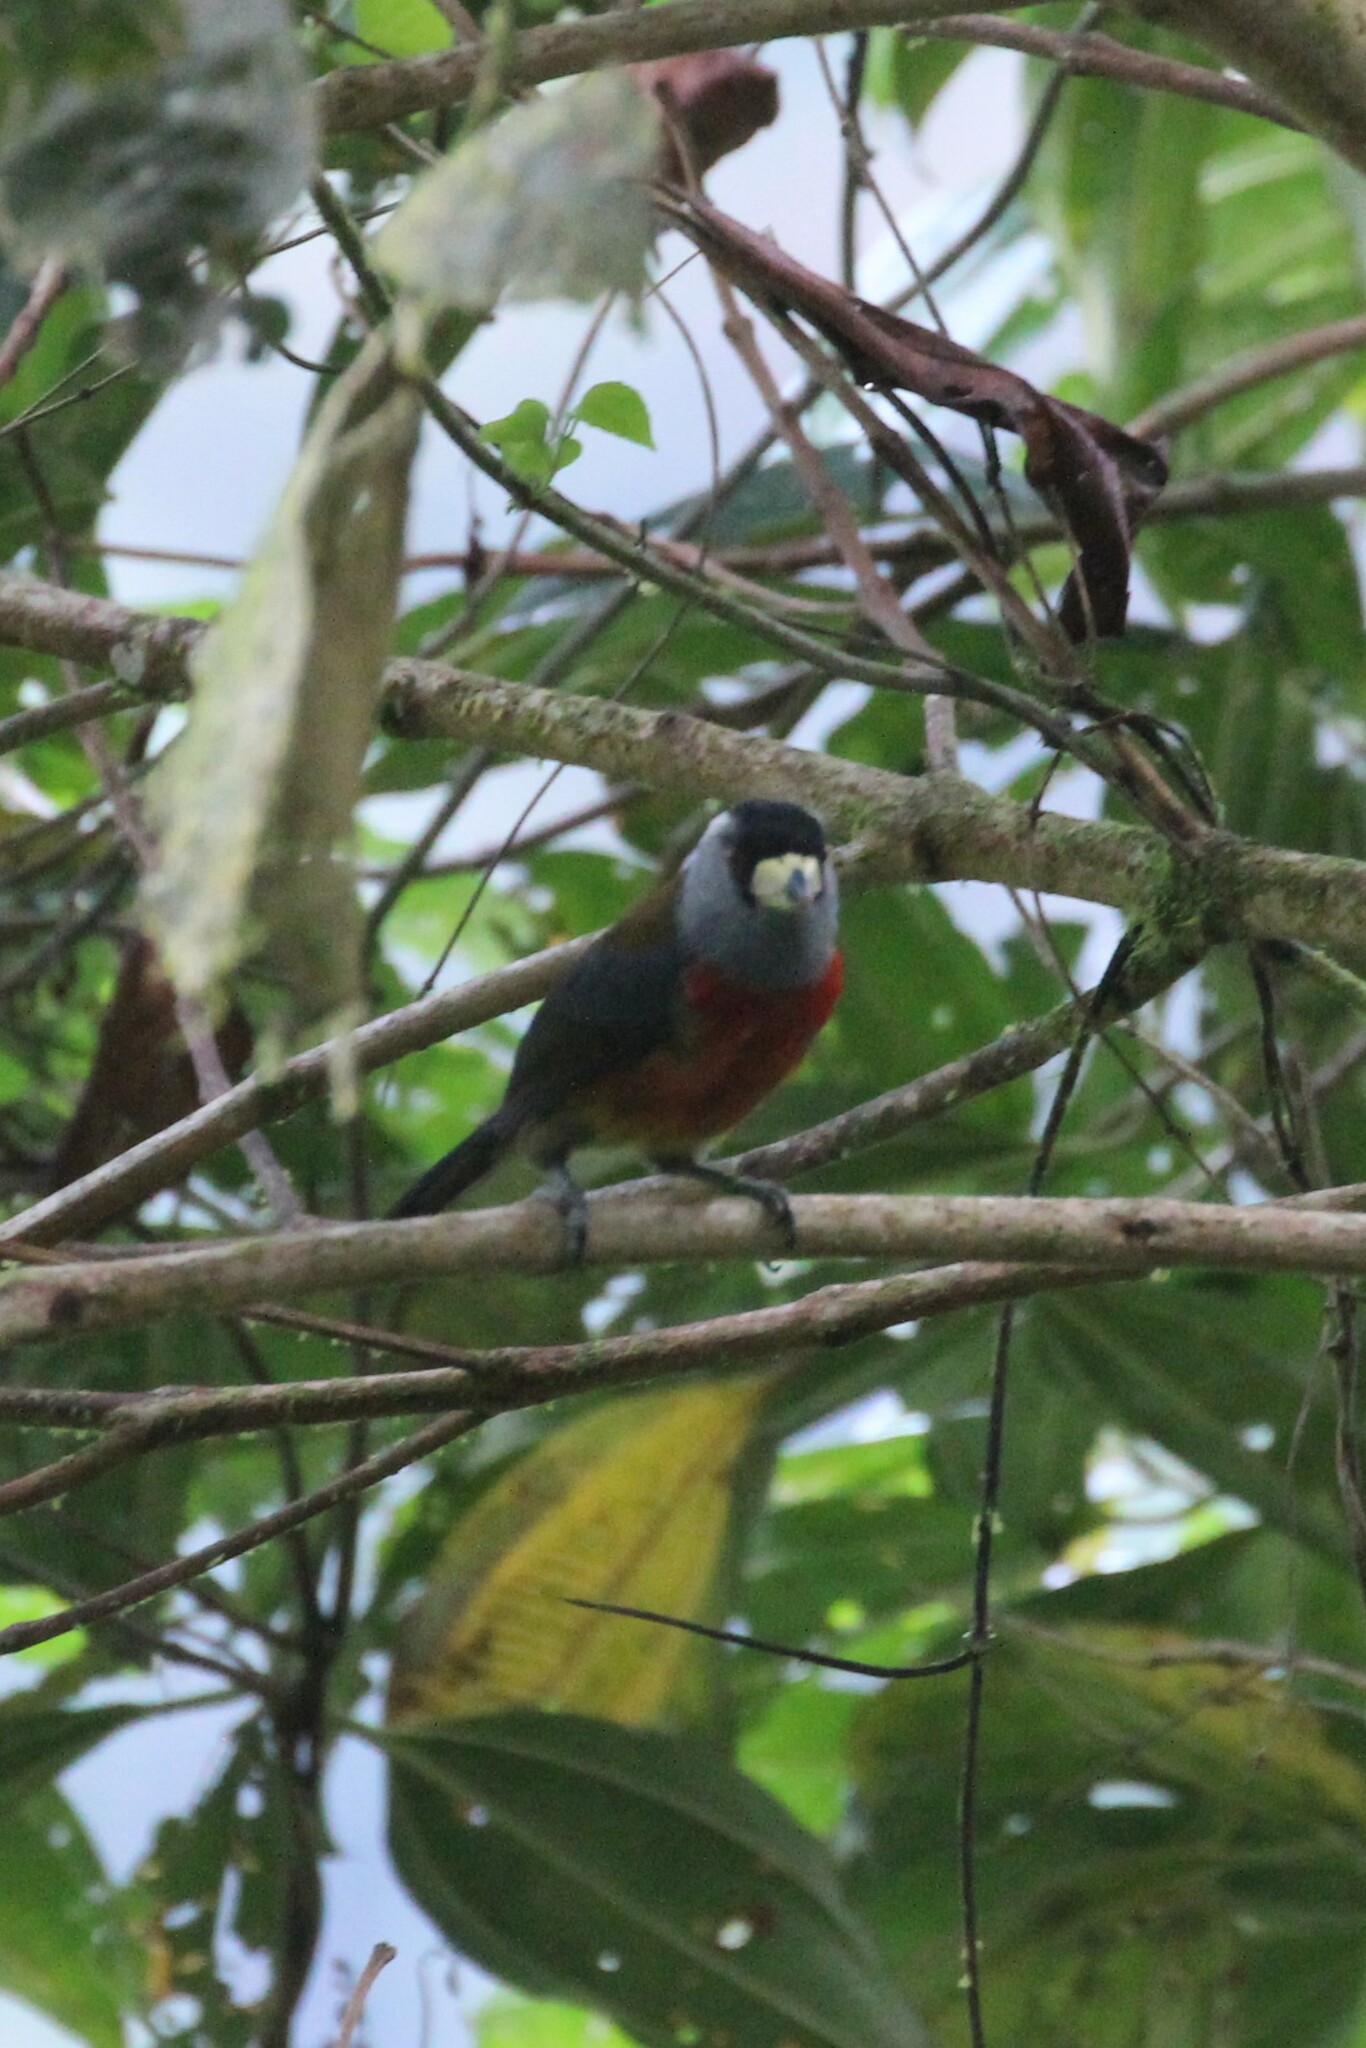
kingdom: Animalia
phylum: Chordata
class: Aves
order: Piciformes
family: Semnornithidae
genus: Semnornis
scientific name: Semnornis ramphastinus
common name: Toucan barbet
